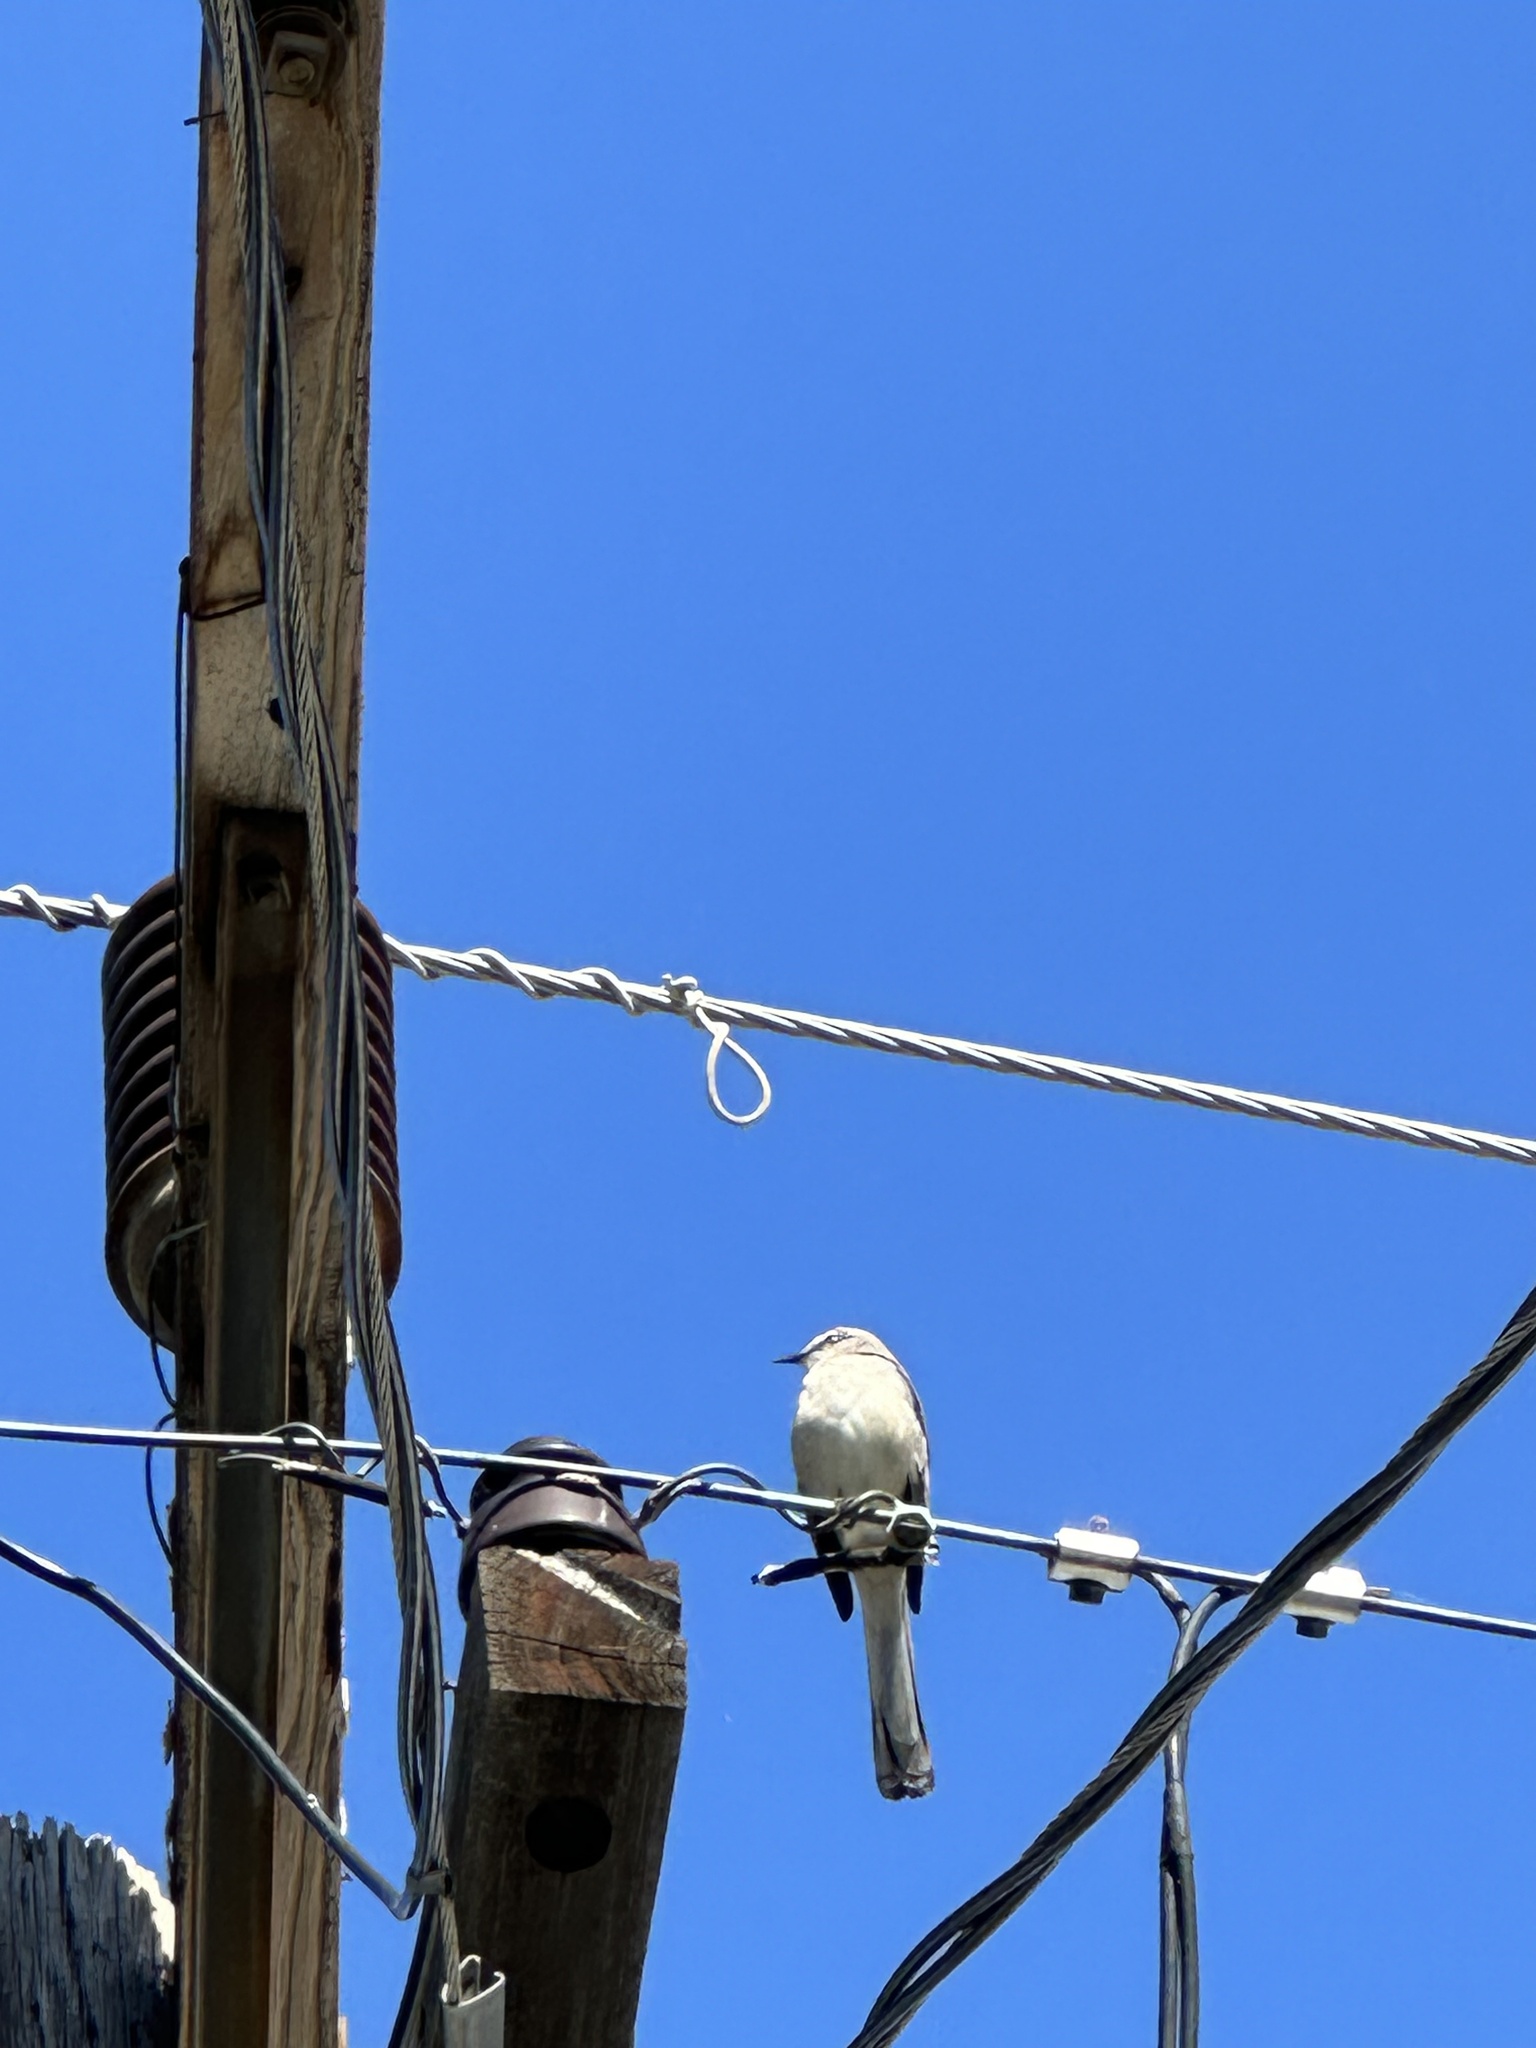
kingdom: Animalia
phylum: Chordata
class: Aves
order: Passeriformes
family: Mimidae
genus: Mimus
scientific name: Mimus polyglottos
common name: Northern mockingbird
